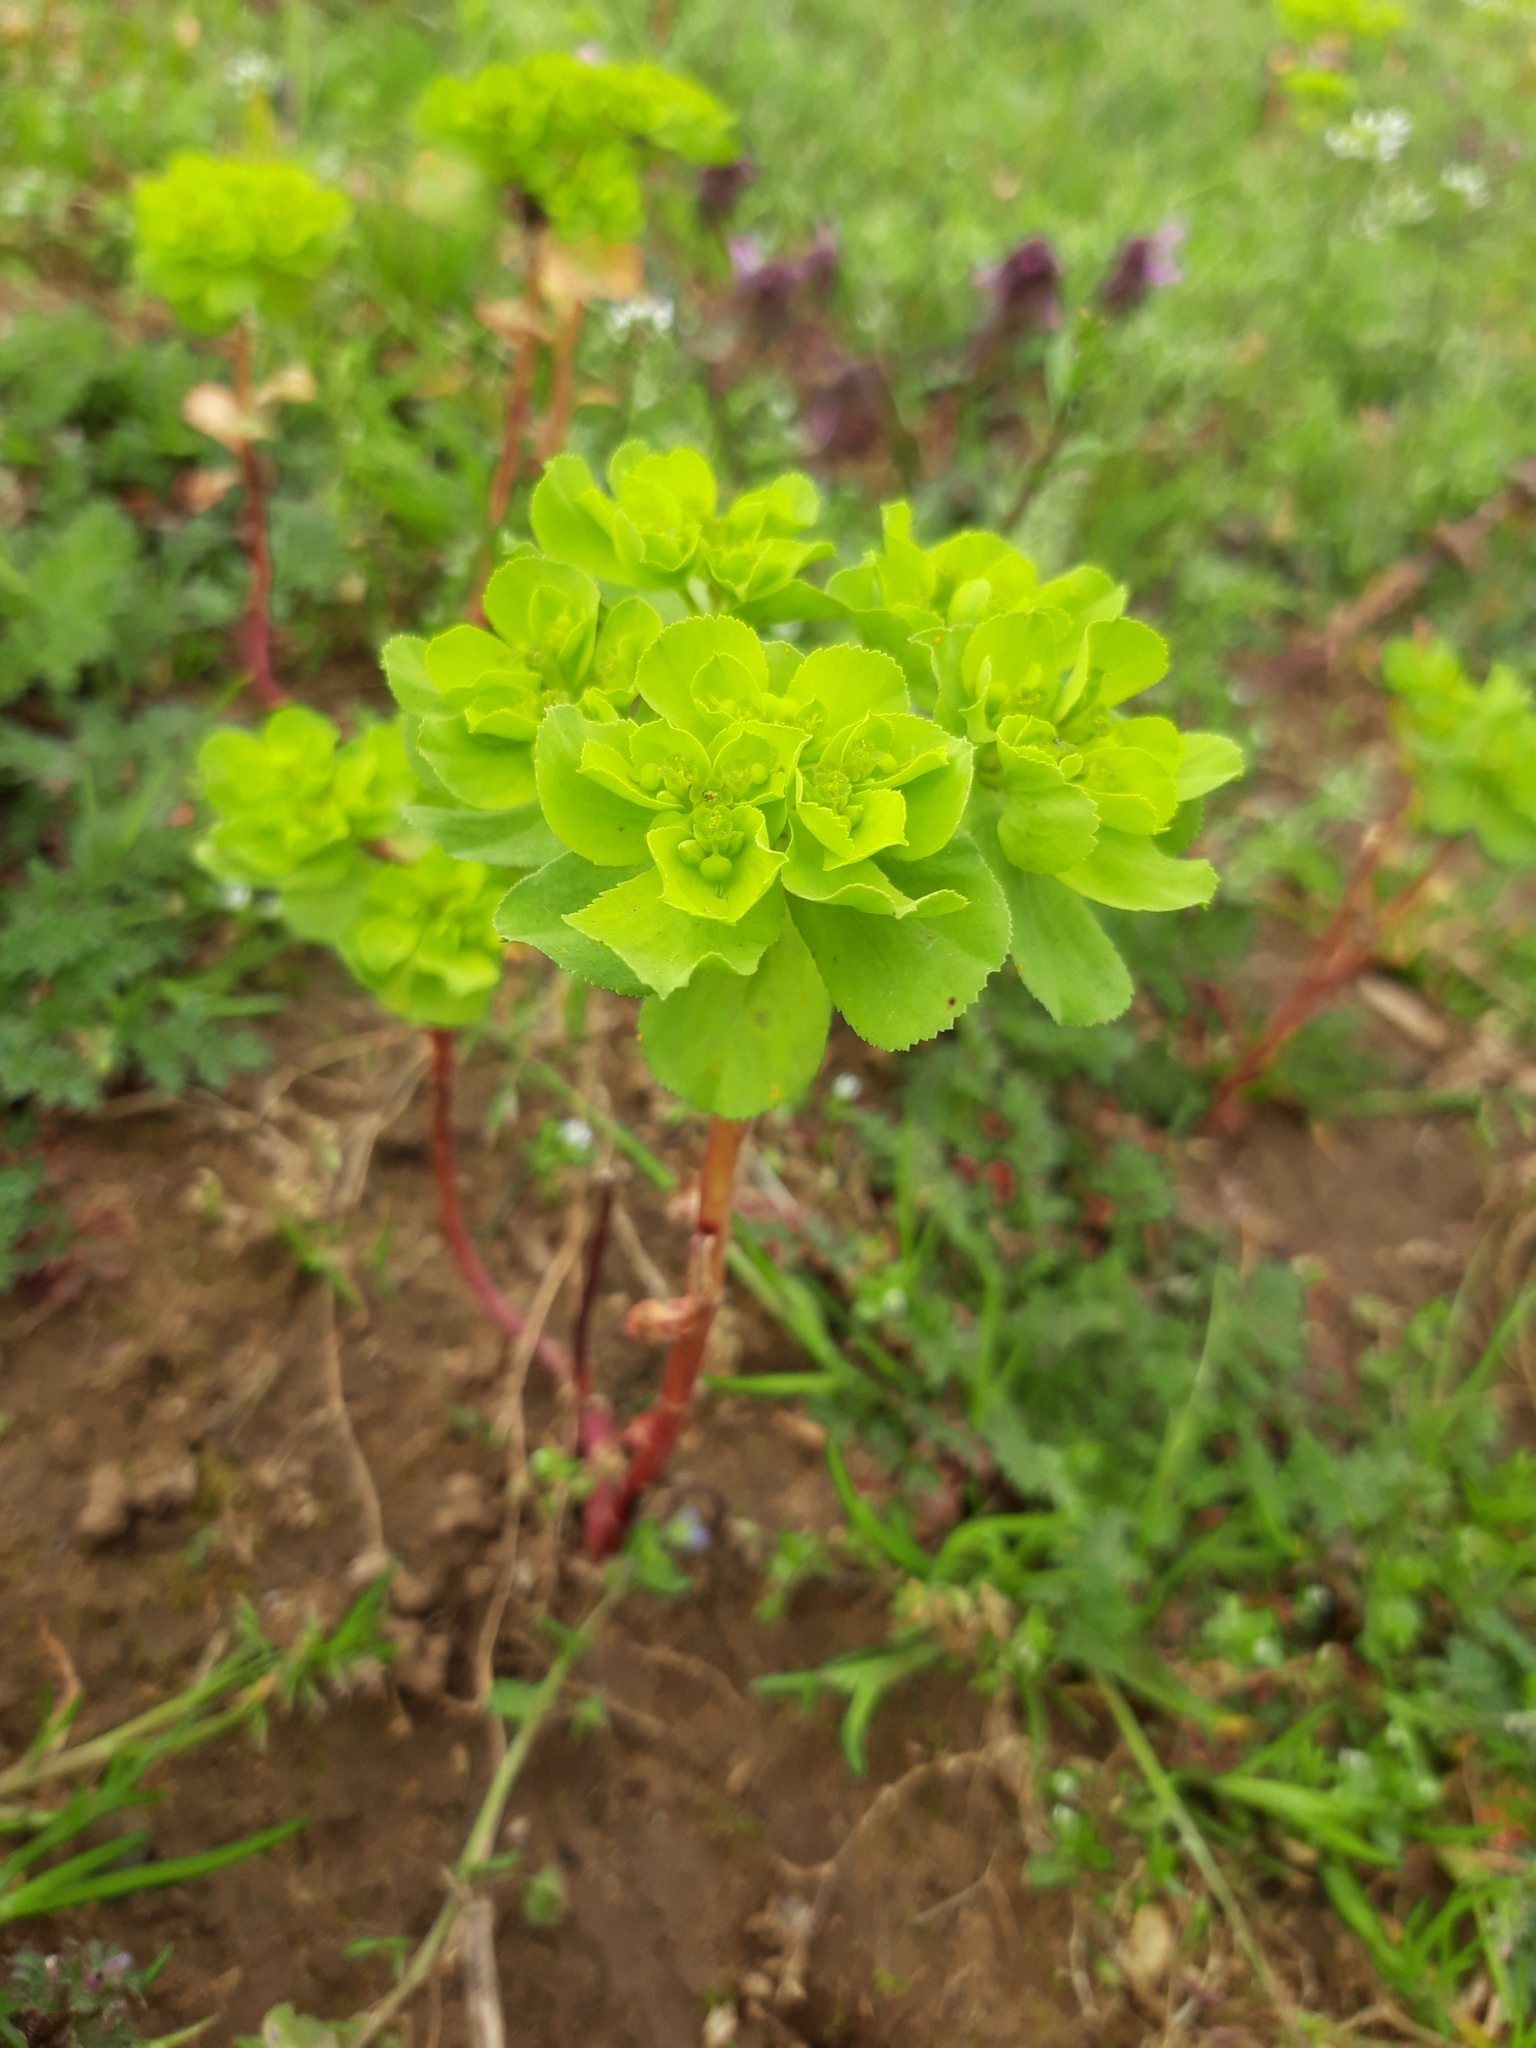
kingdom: Plantae
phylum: Tracheophyta
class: Magnoliopsida
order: Malpighiales
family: Euphorbiaceae
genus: Euphorbia
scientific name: Euphorbia helioscopia
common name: Sun spurge
